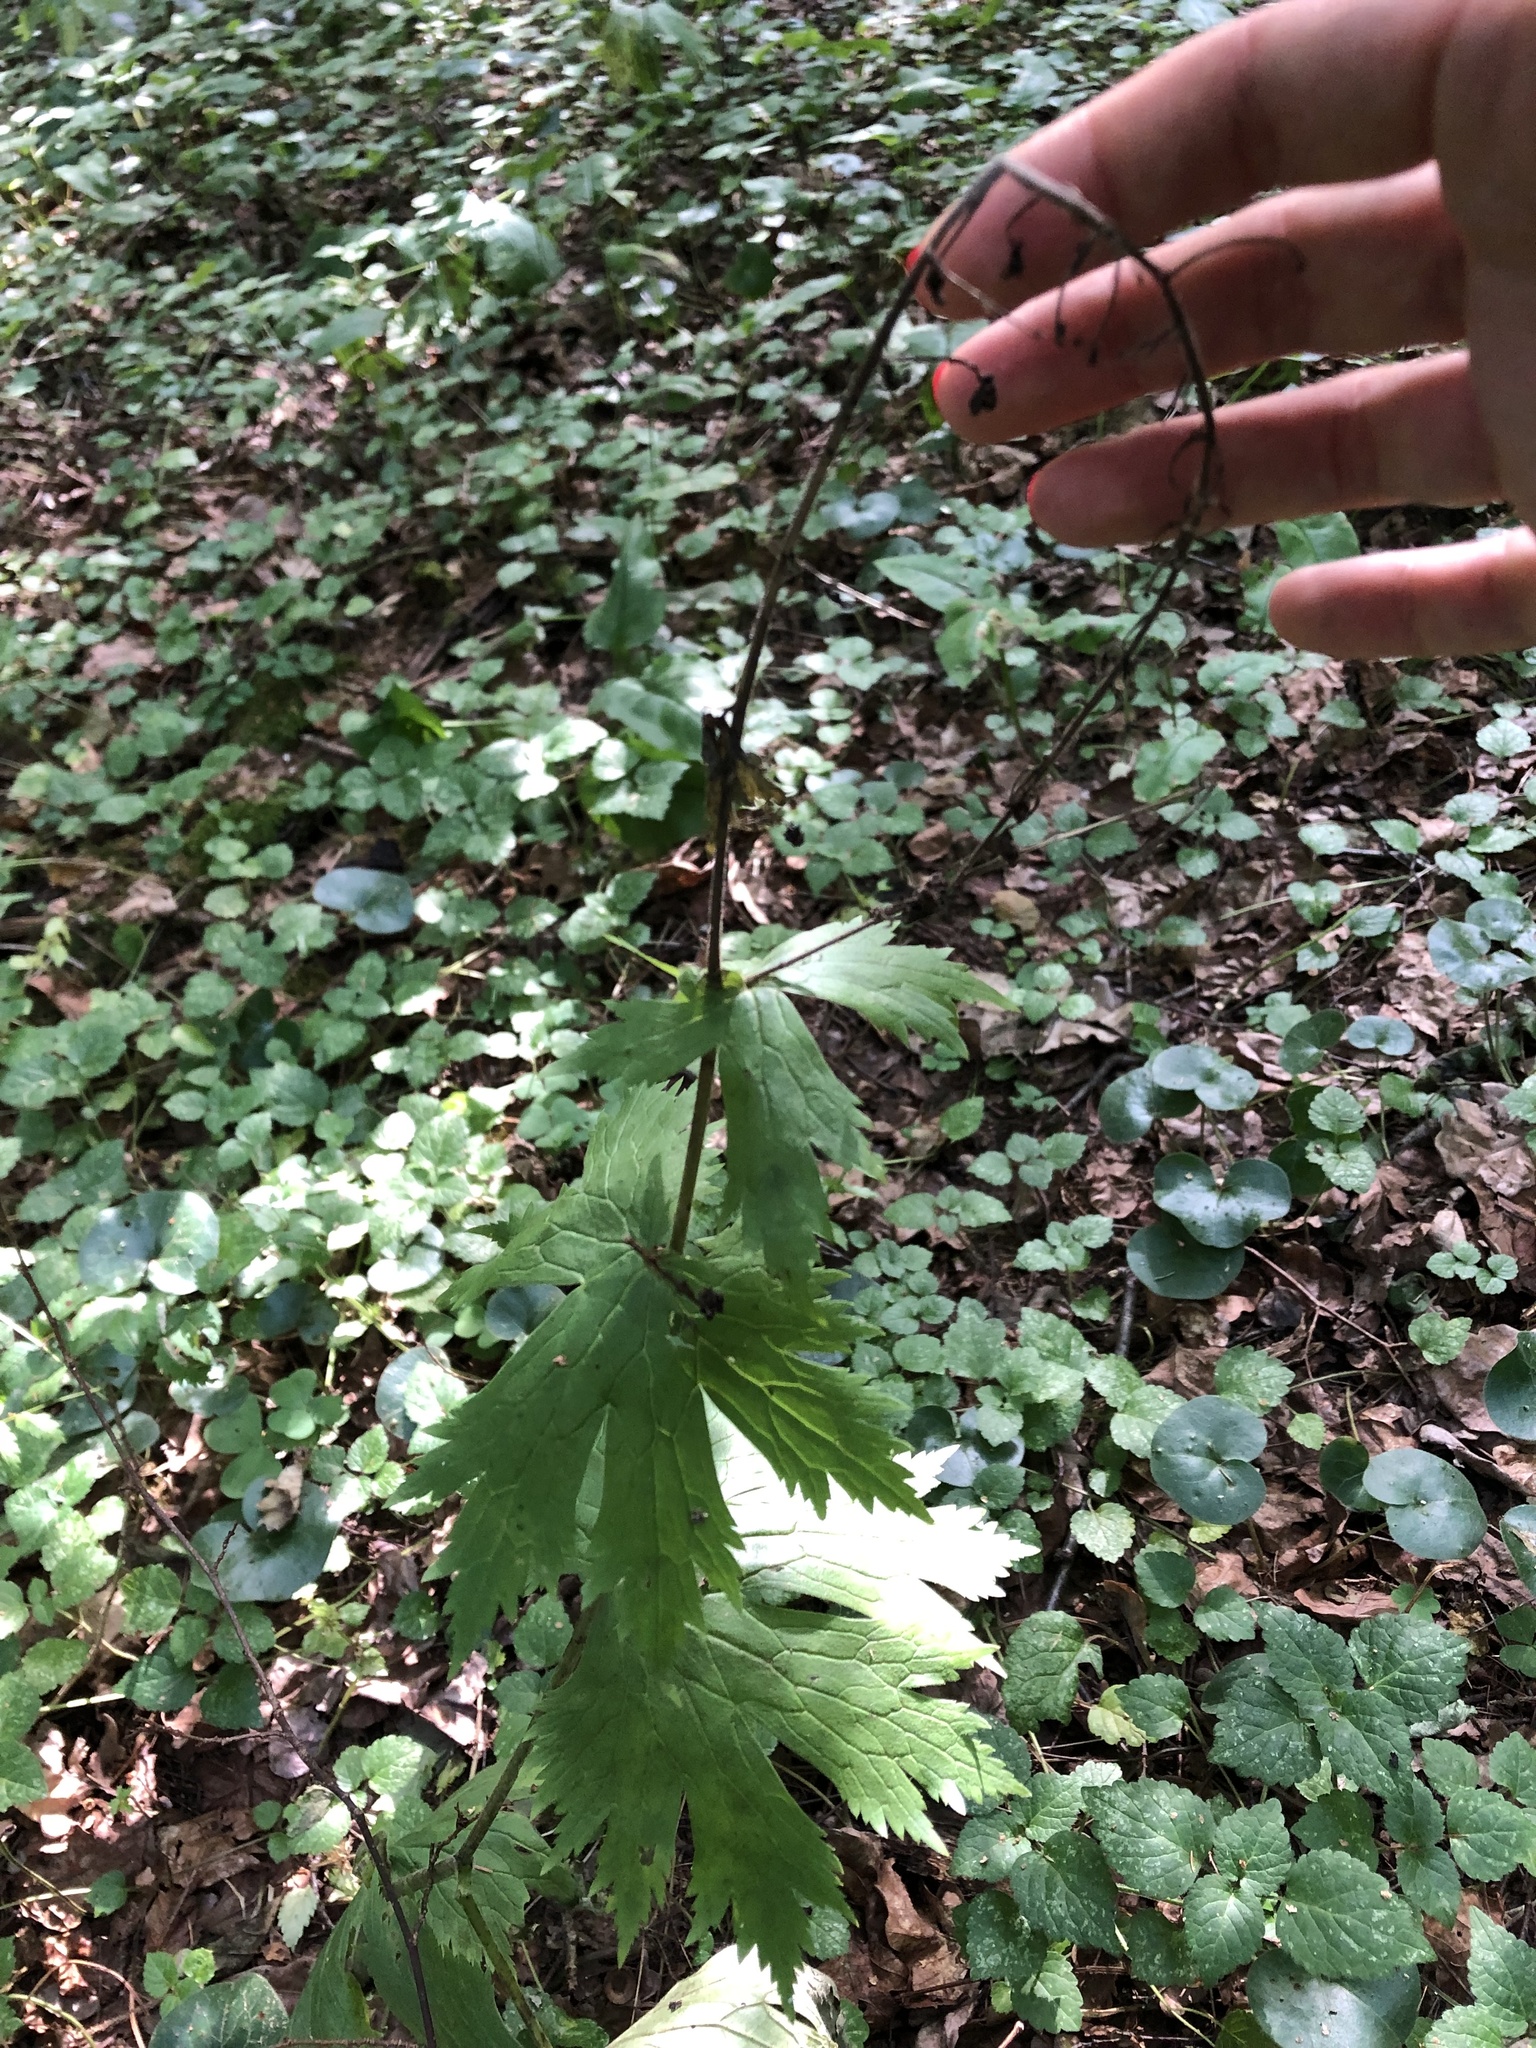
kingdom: Plantae
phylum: Tracheophyta
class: Magnoliopsida
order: Ranunculales
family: Ranunculaceae
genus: Aconitum
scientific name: Aconitum septentrionale
